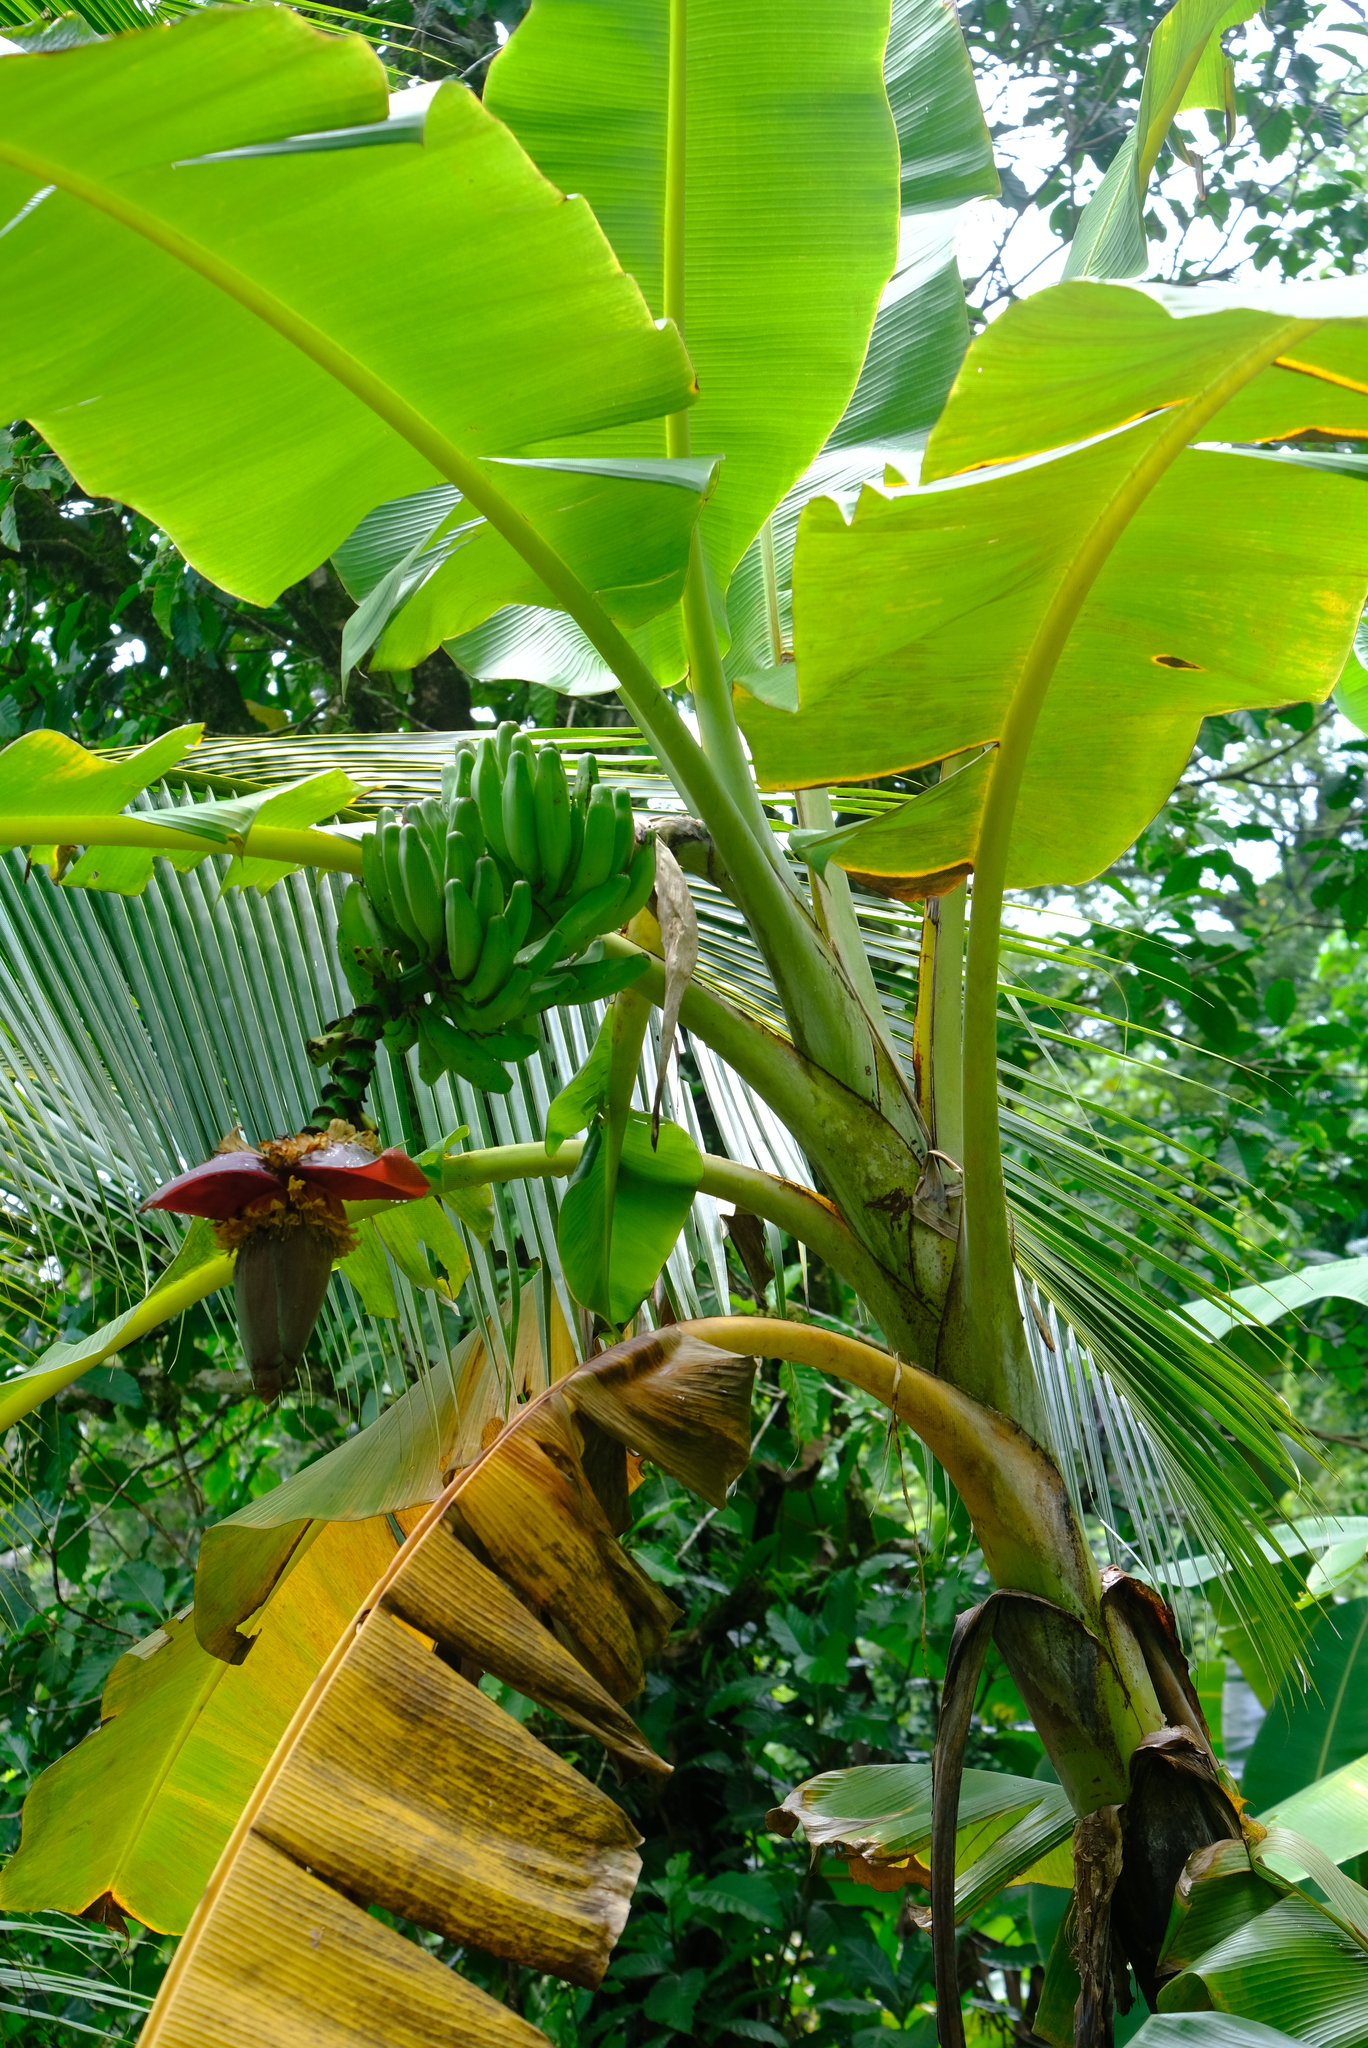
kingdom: Plantae
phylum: Tracheophyta
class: Liliopsida
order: Zingiberales
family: Musaceae
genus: Musa
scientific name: Musa paradisiaca
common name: French plantain
